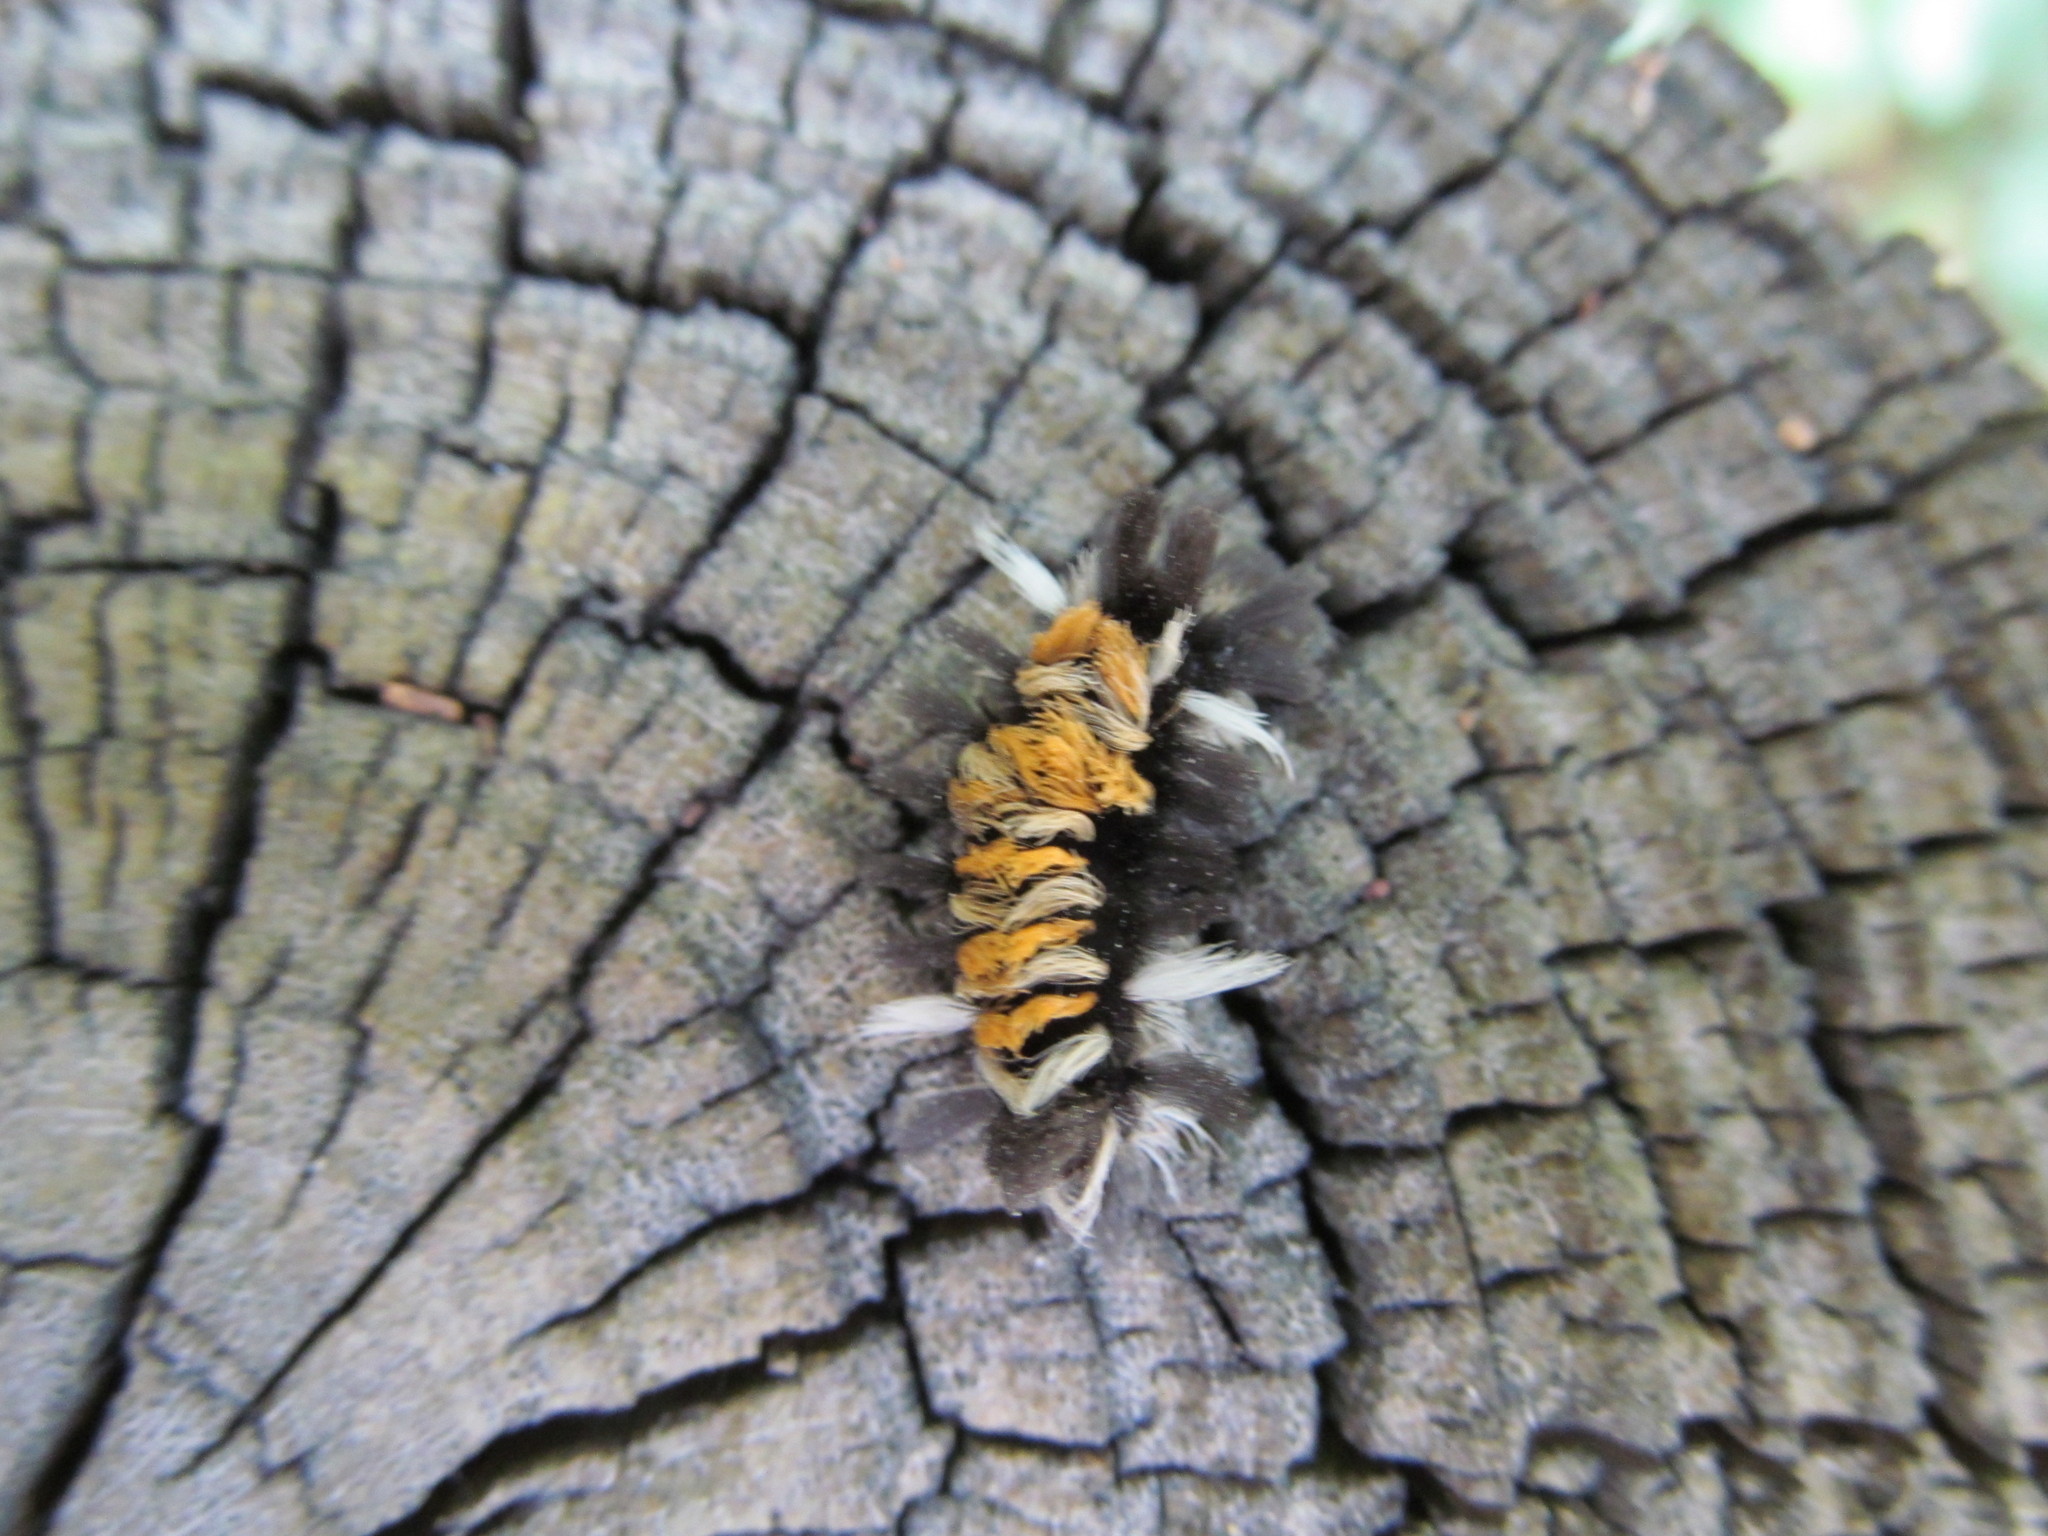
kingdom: Animalia
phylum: Arthropoda
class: Insecta
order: Lepidoptera
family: Erebidae
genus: Euchaetes
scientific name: Euchaetes egle
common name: Milkweed tussock moth
